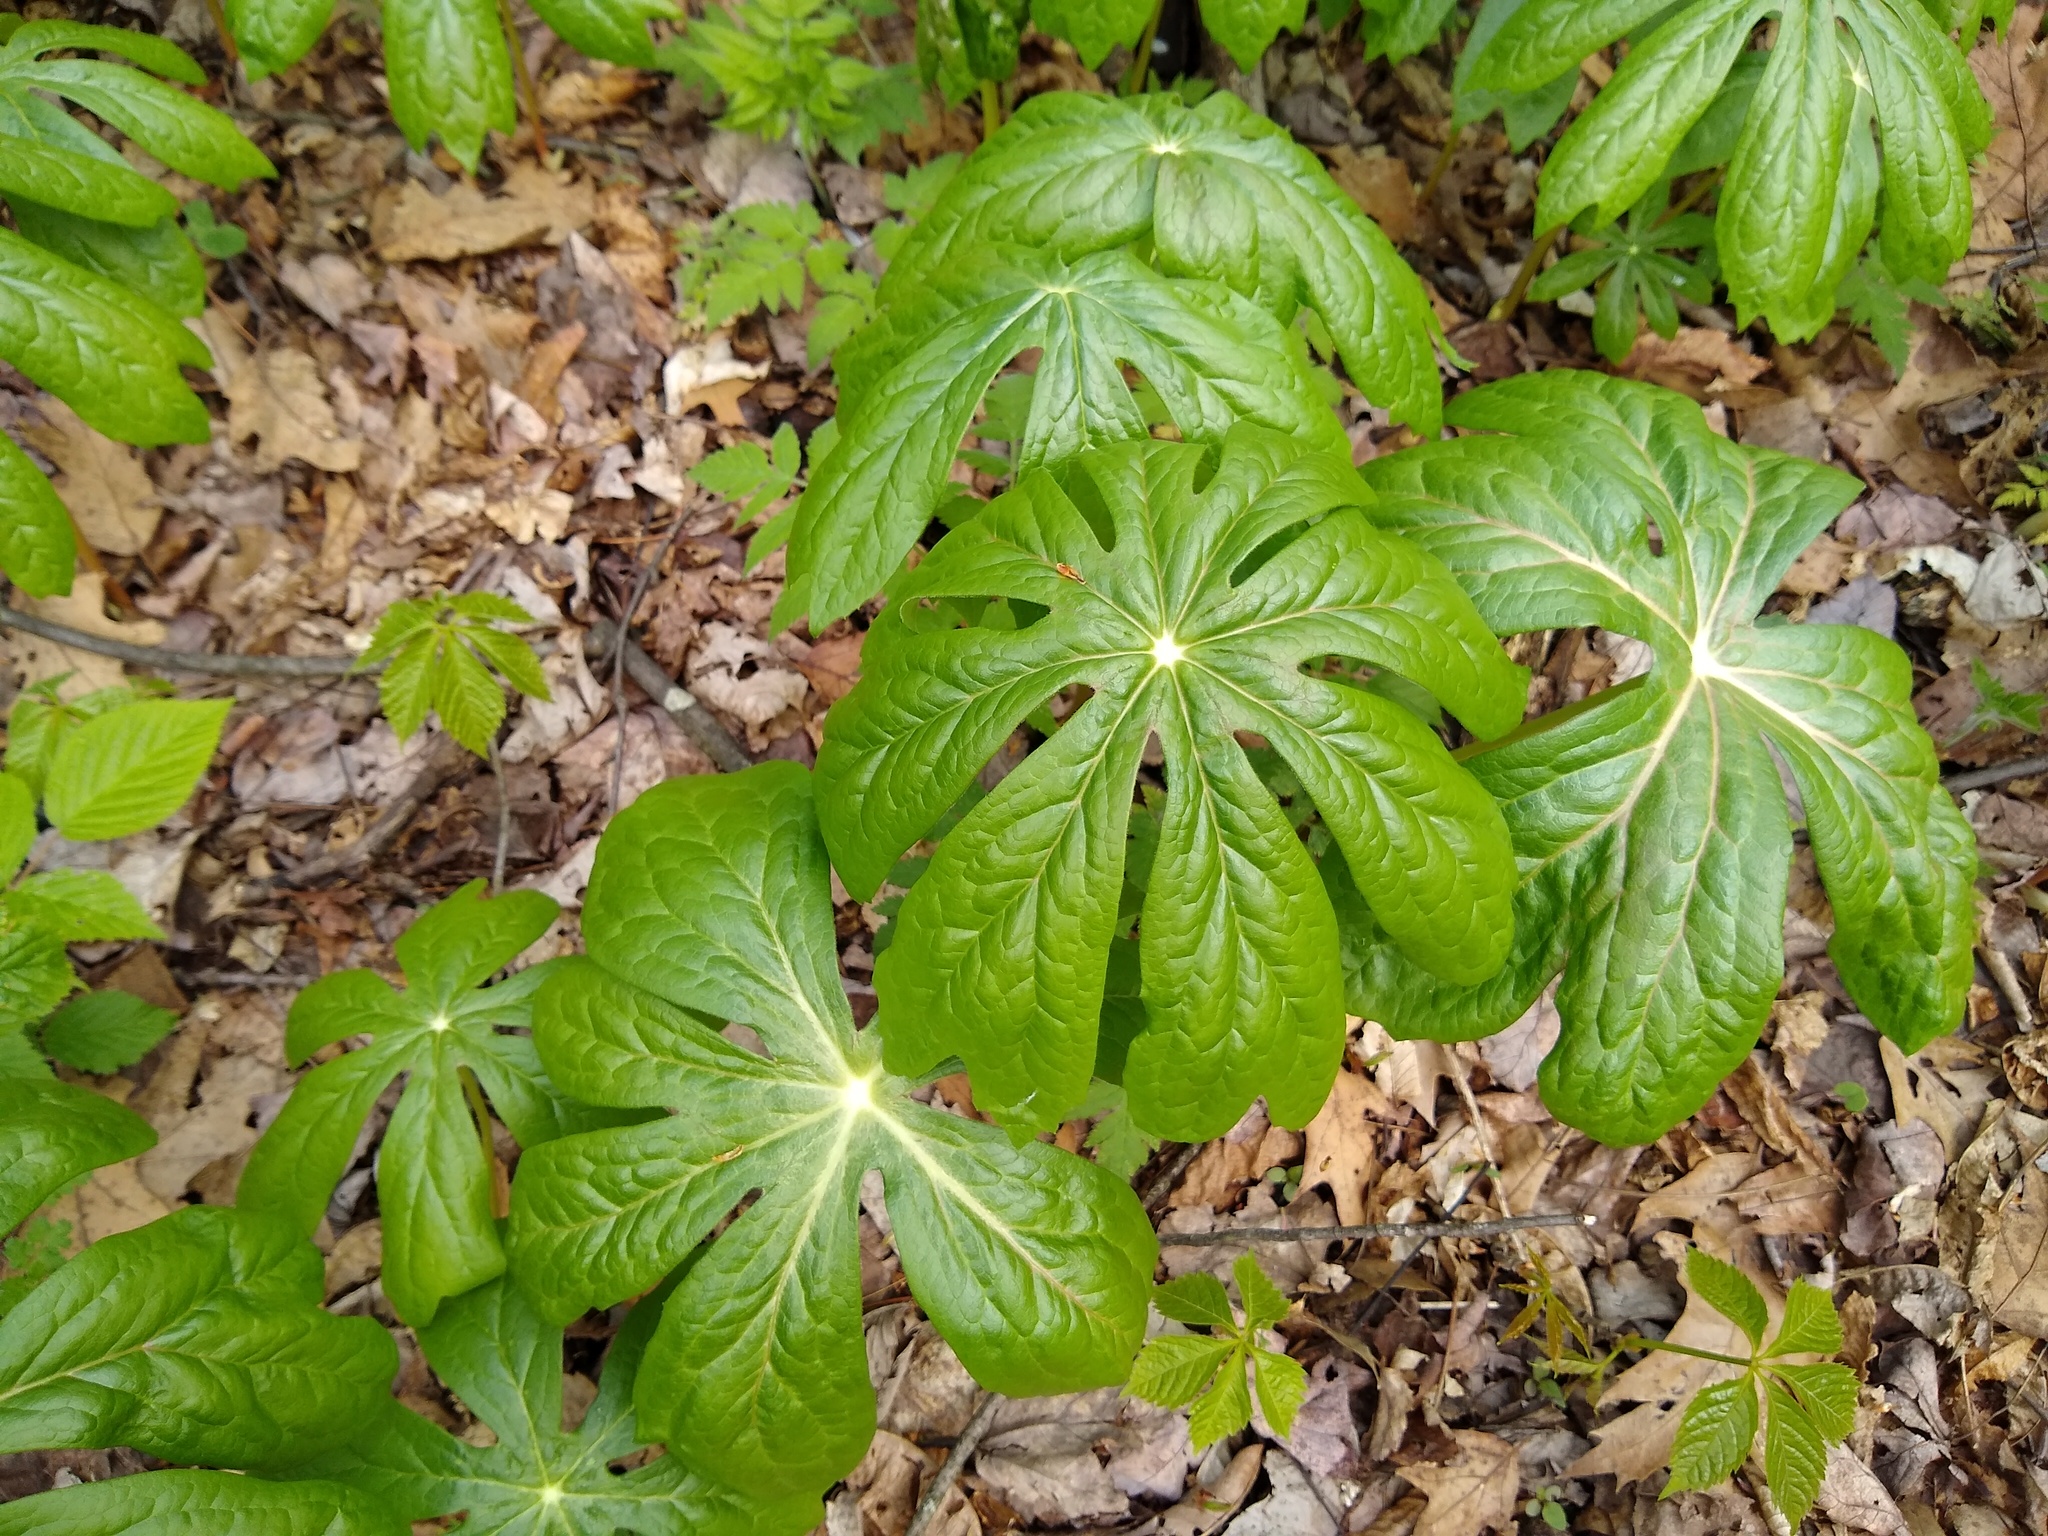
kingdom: Plantae
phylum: Tracheophyta
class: Magnoliopsida
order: Ranunculales
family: Berberidaceae
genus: Podophyllum
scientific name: Podophyllum peltatum
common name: Wild mandrake
